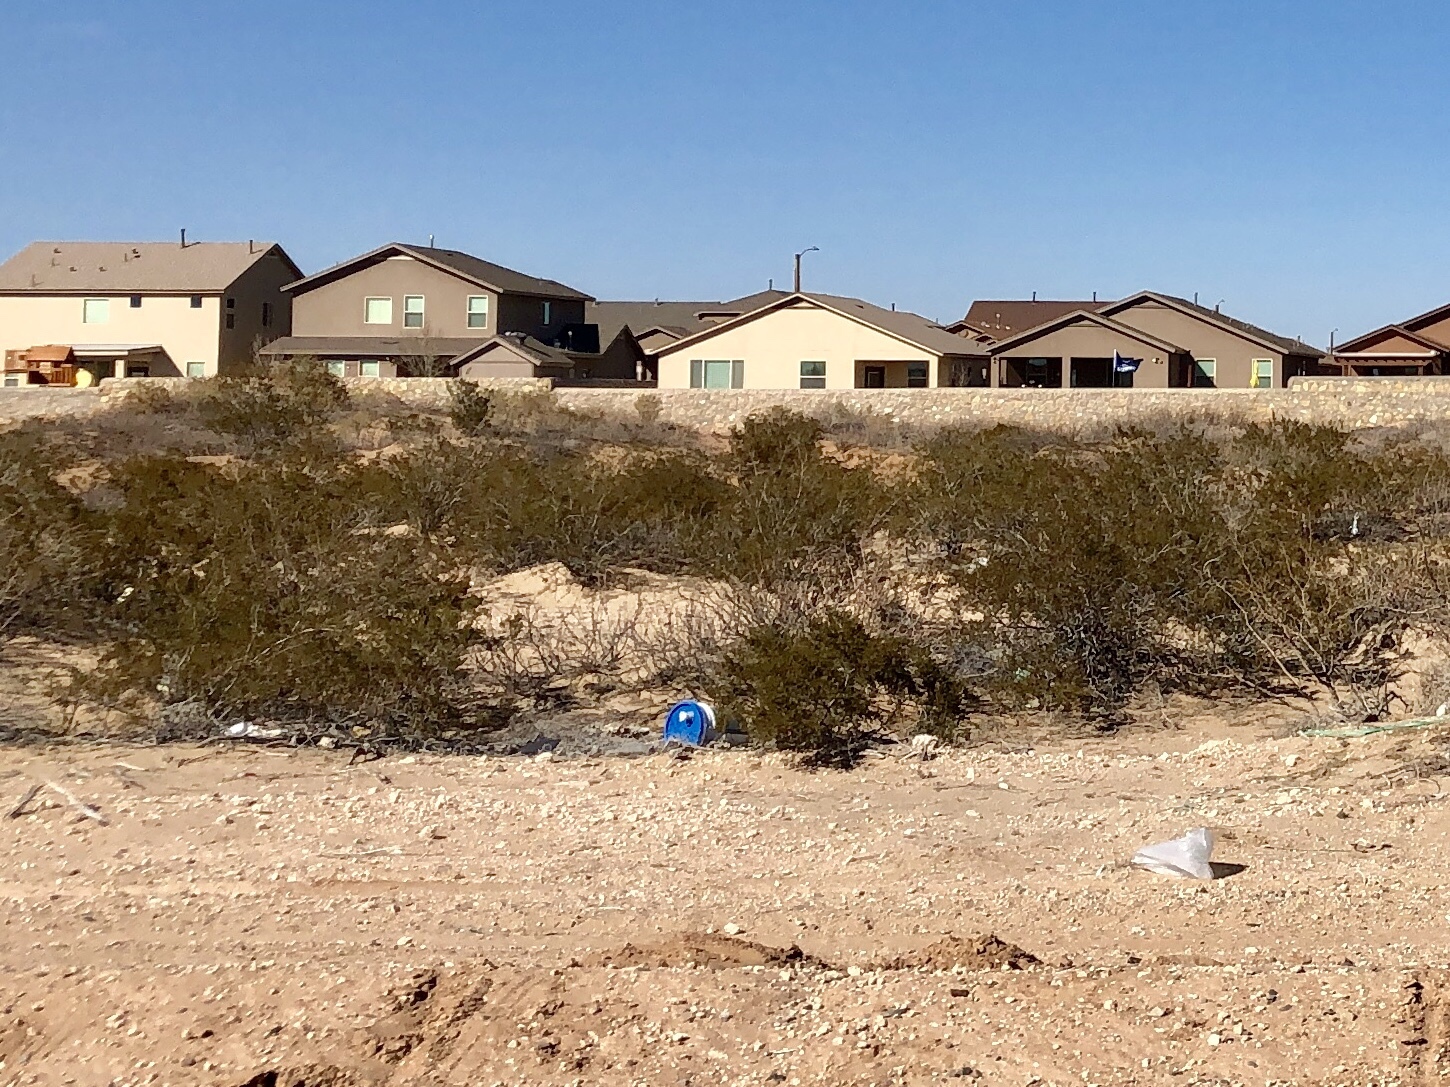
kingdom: Plantae
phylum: Tracheophyta
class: Magnoliopsida
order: Zygophyllales
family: Zygophyllaceae
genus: Larrea
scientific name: Larrea tridentata
